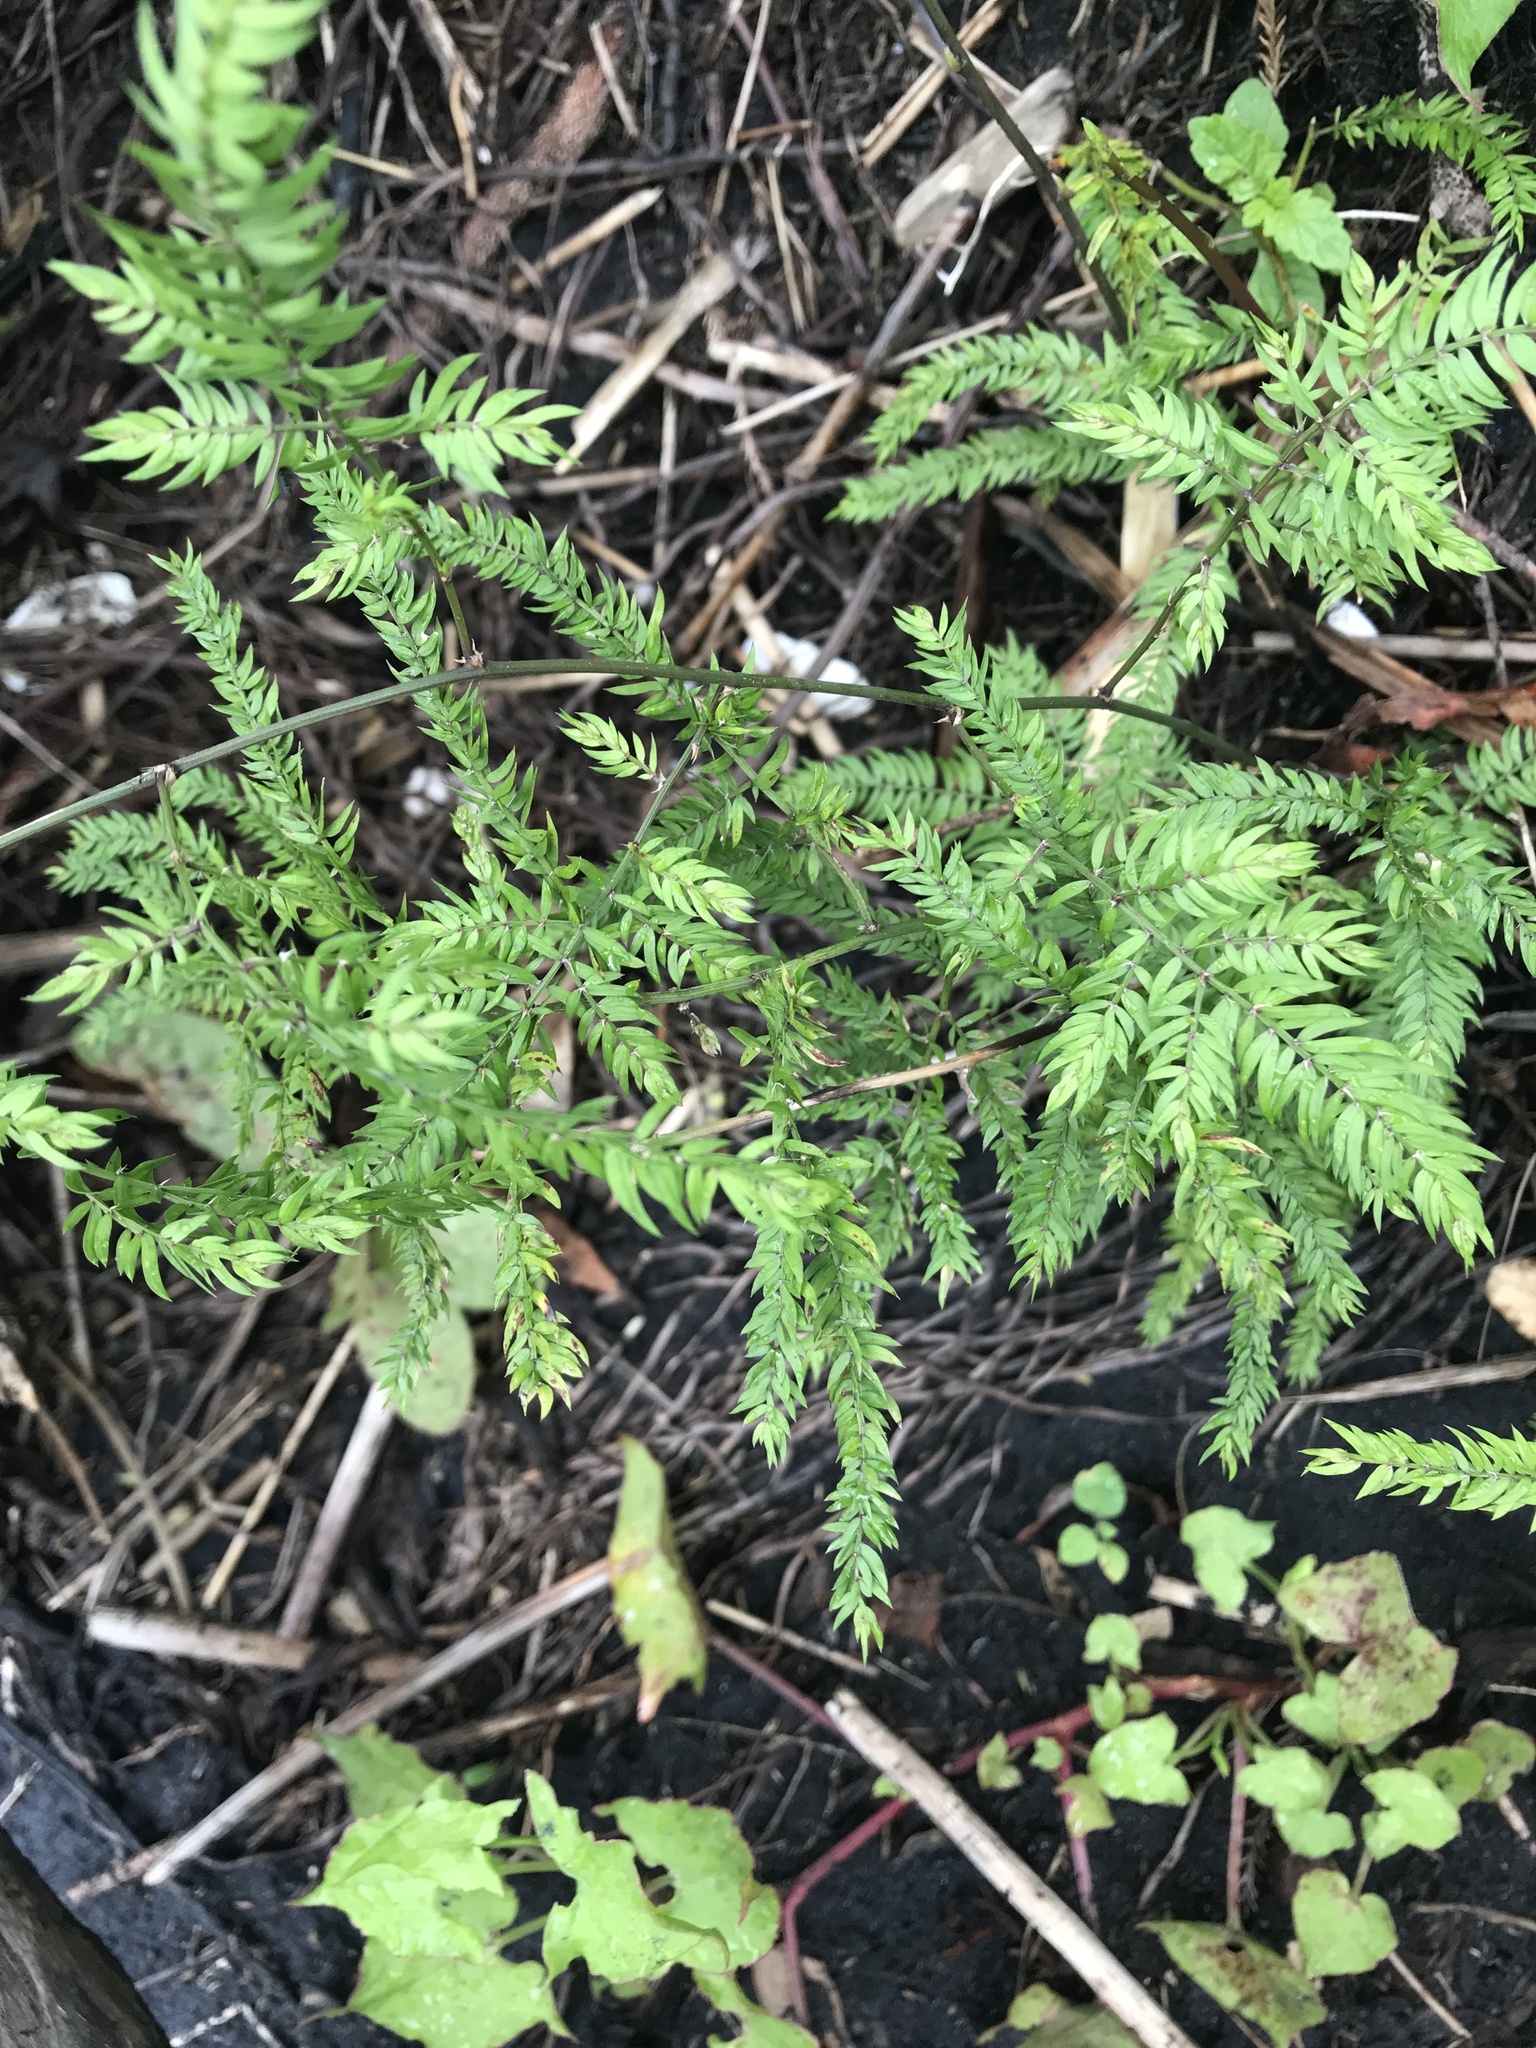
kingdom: Plantae
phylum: Tracheophyta
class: Liliopsida
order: Asparagales
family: Asparagaceae
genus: Asparagus
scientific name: Asparagus scandens
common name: Asparagus-fern
